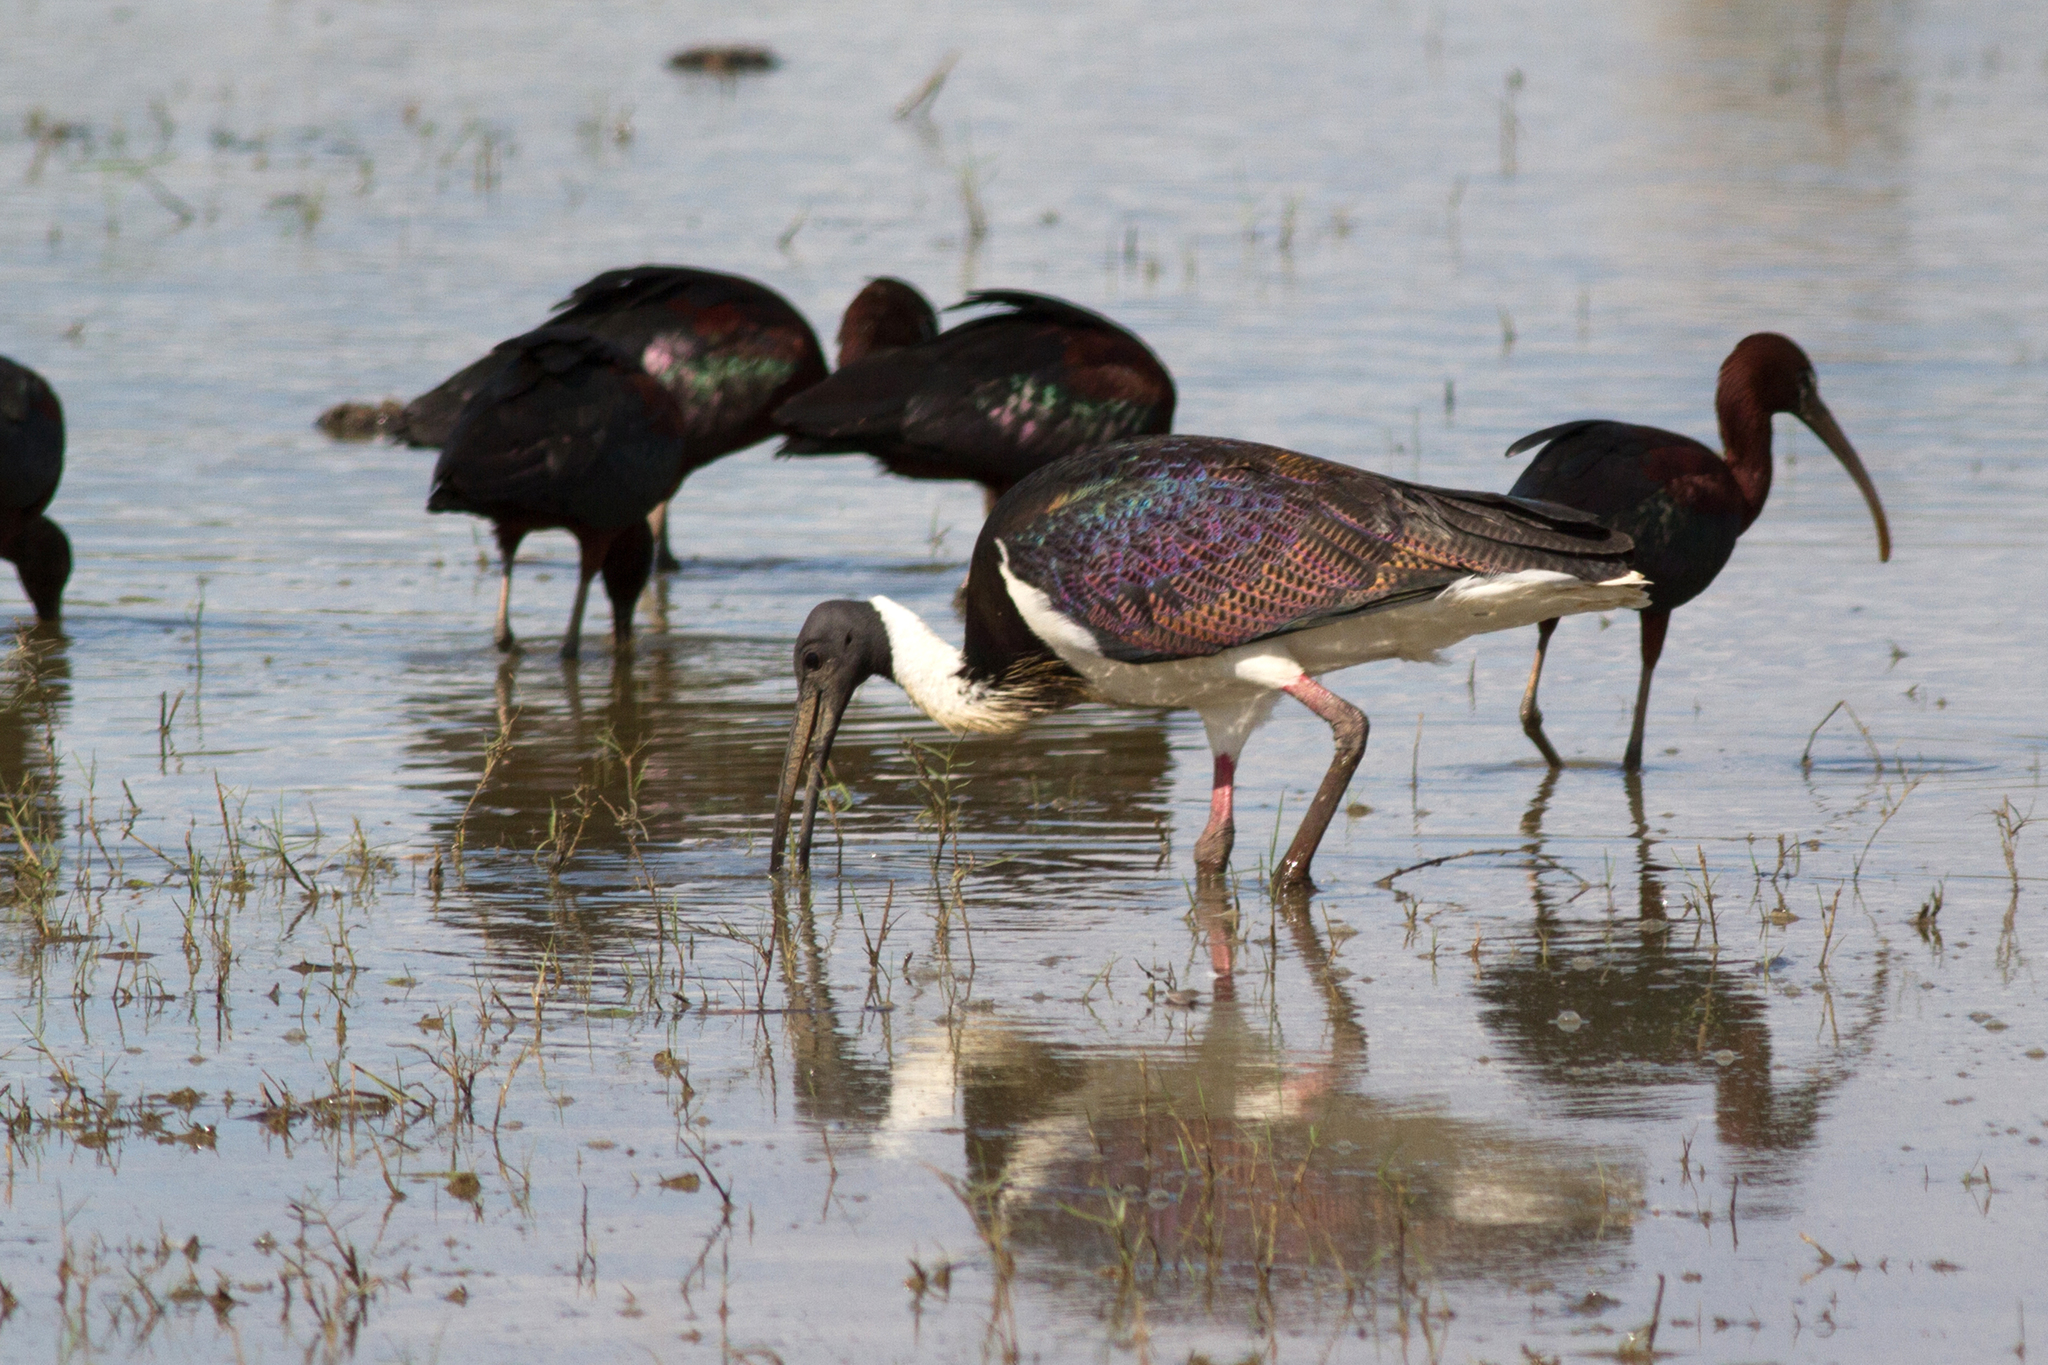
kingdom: Animalia
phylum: Chordata
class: Aves
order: Pelecaniformes
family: Threskiornithidae
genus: Threskiornis
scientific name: Threskiornis spinicollis
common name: Straw-necked ibis
